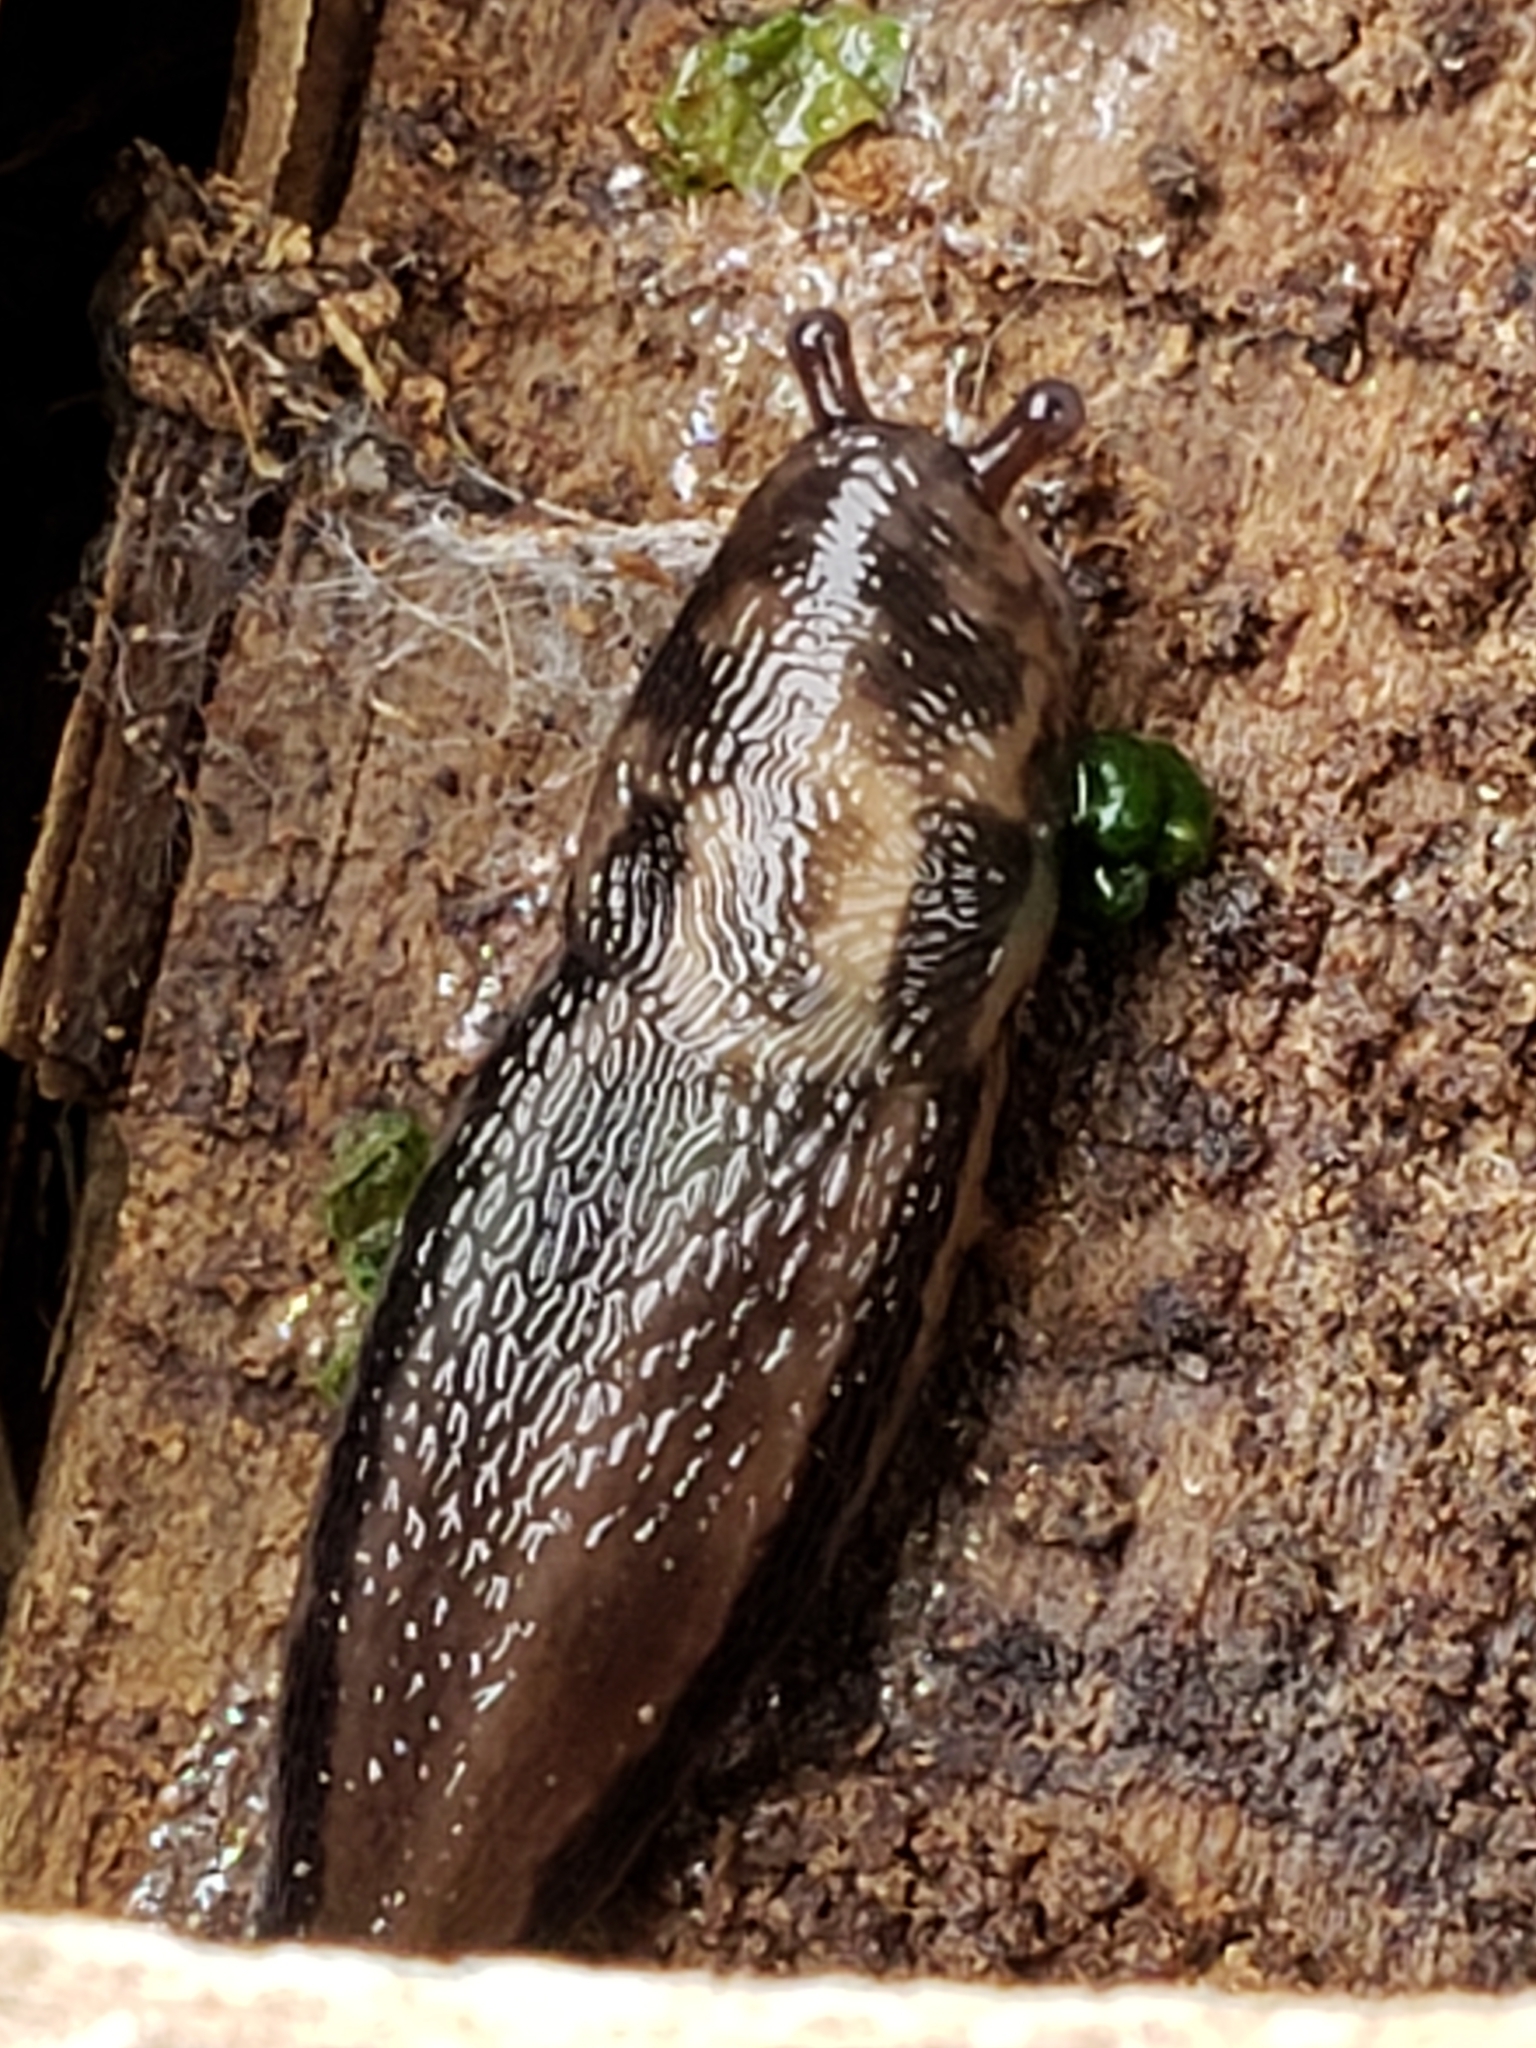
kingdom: Animalia
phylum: Mollusca
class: Gastropoda
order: Stylommatophora
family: Limacidae
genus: Limax
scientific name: Limax maximus
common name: Great grey slug
